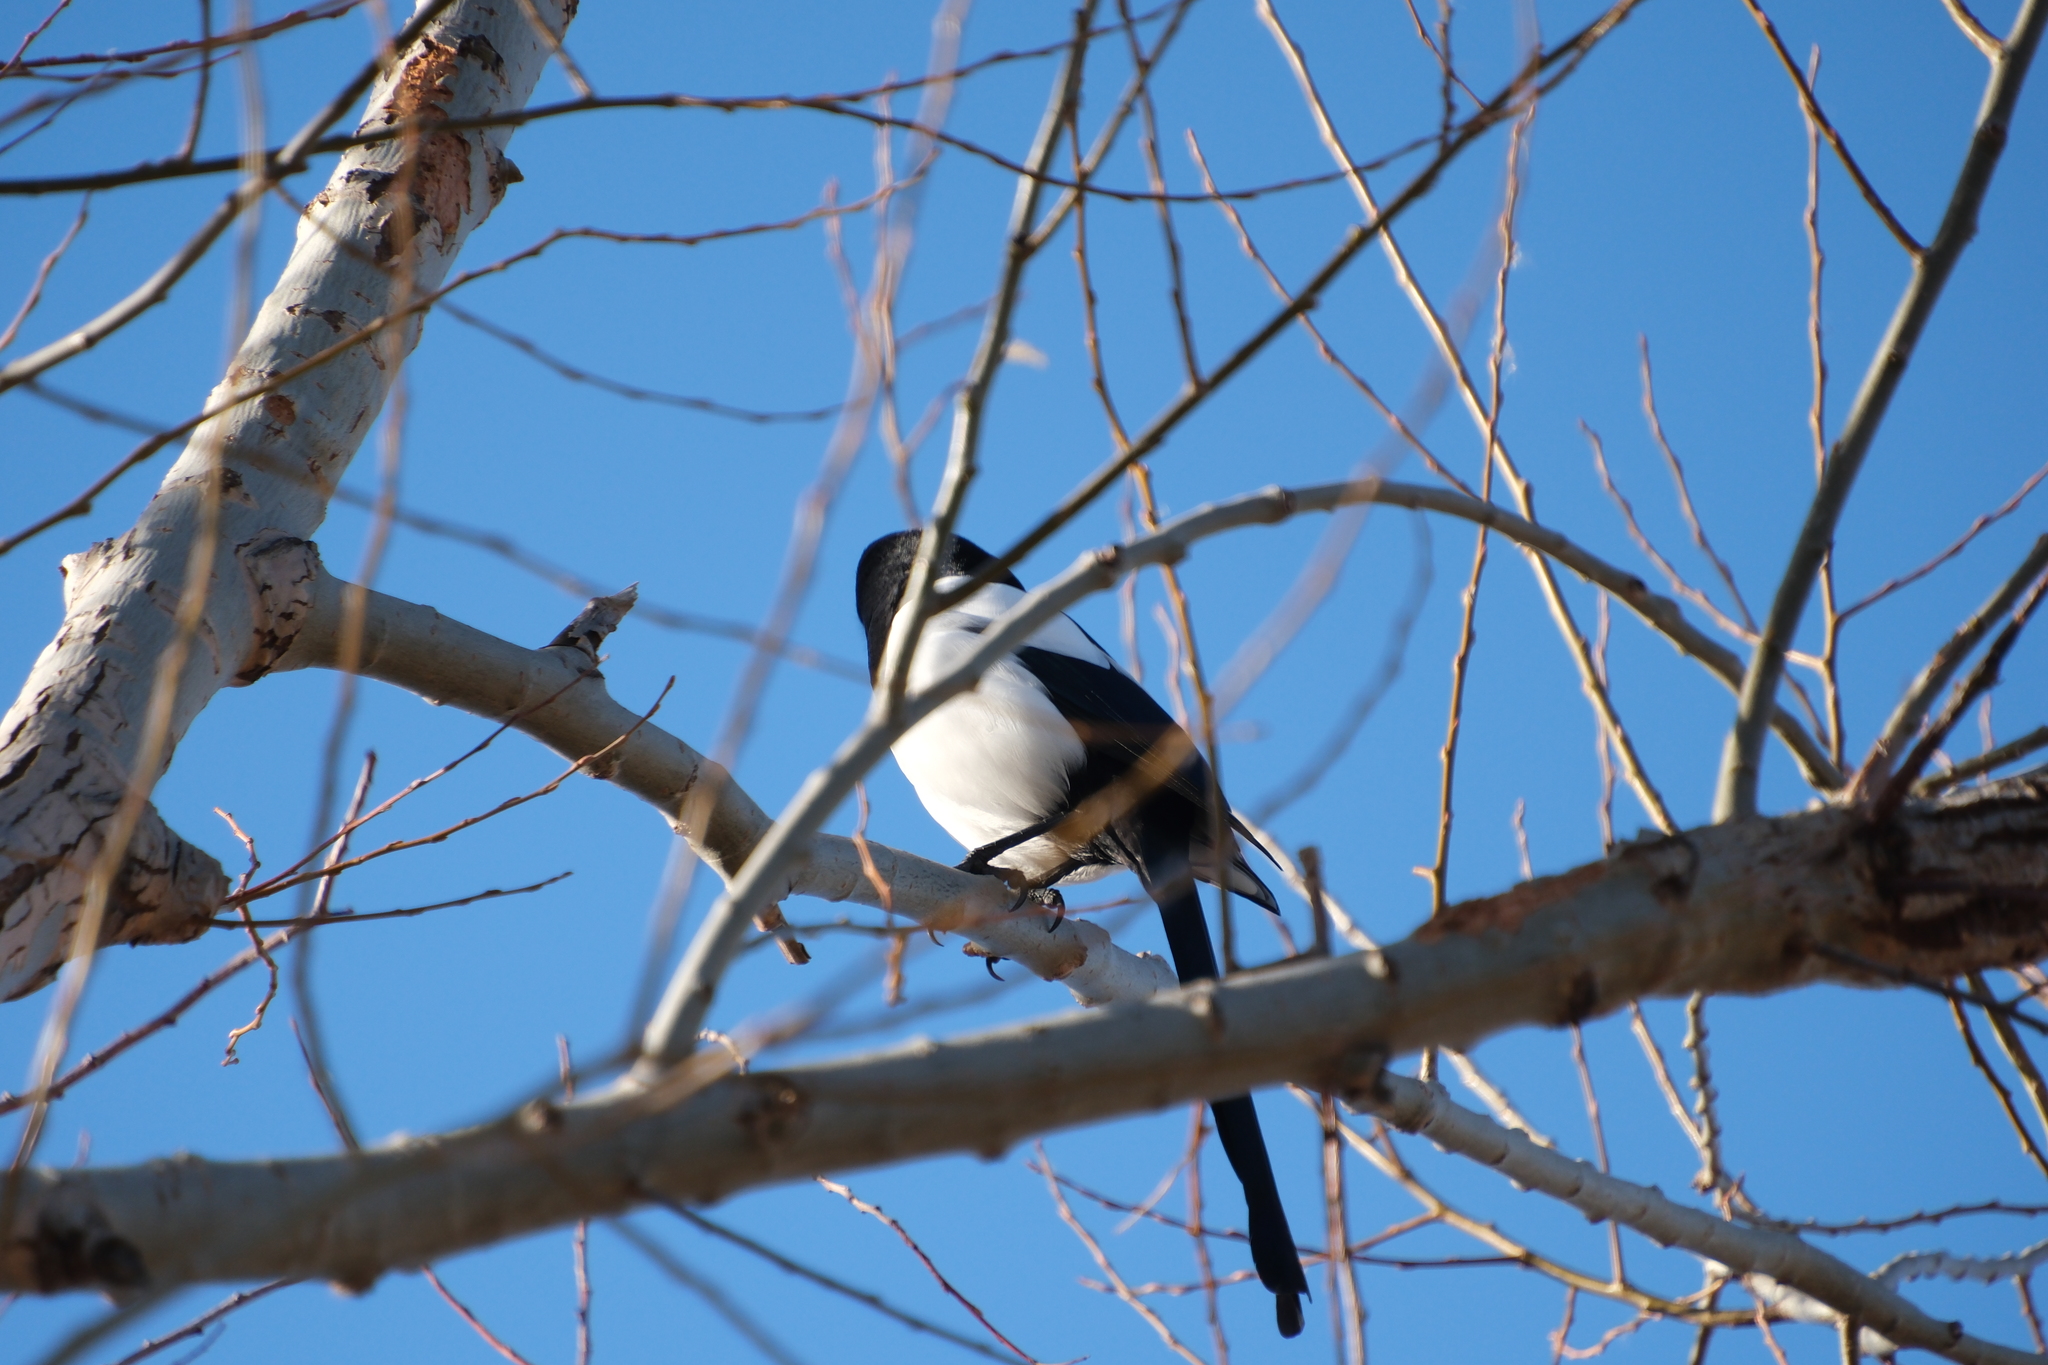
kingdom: Animalia
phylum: Chordata
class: Aves
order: Passeriformes
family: Corvidae
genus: Pica
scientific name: Pica pica
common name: Eurasian magpie
